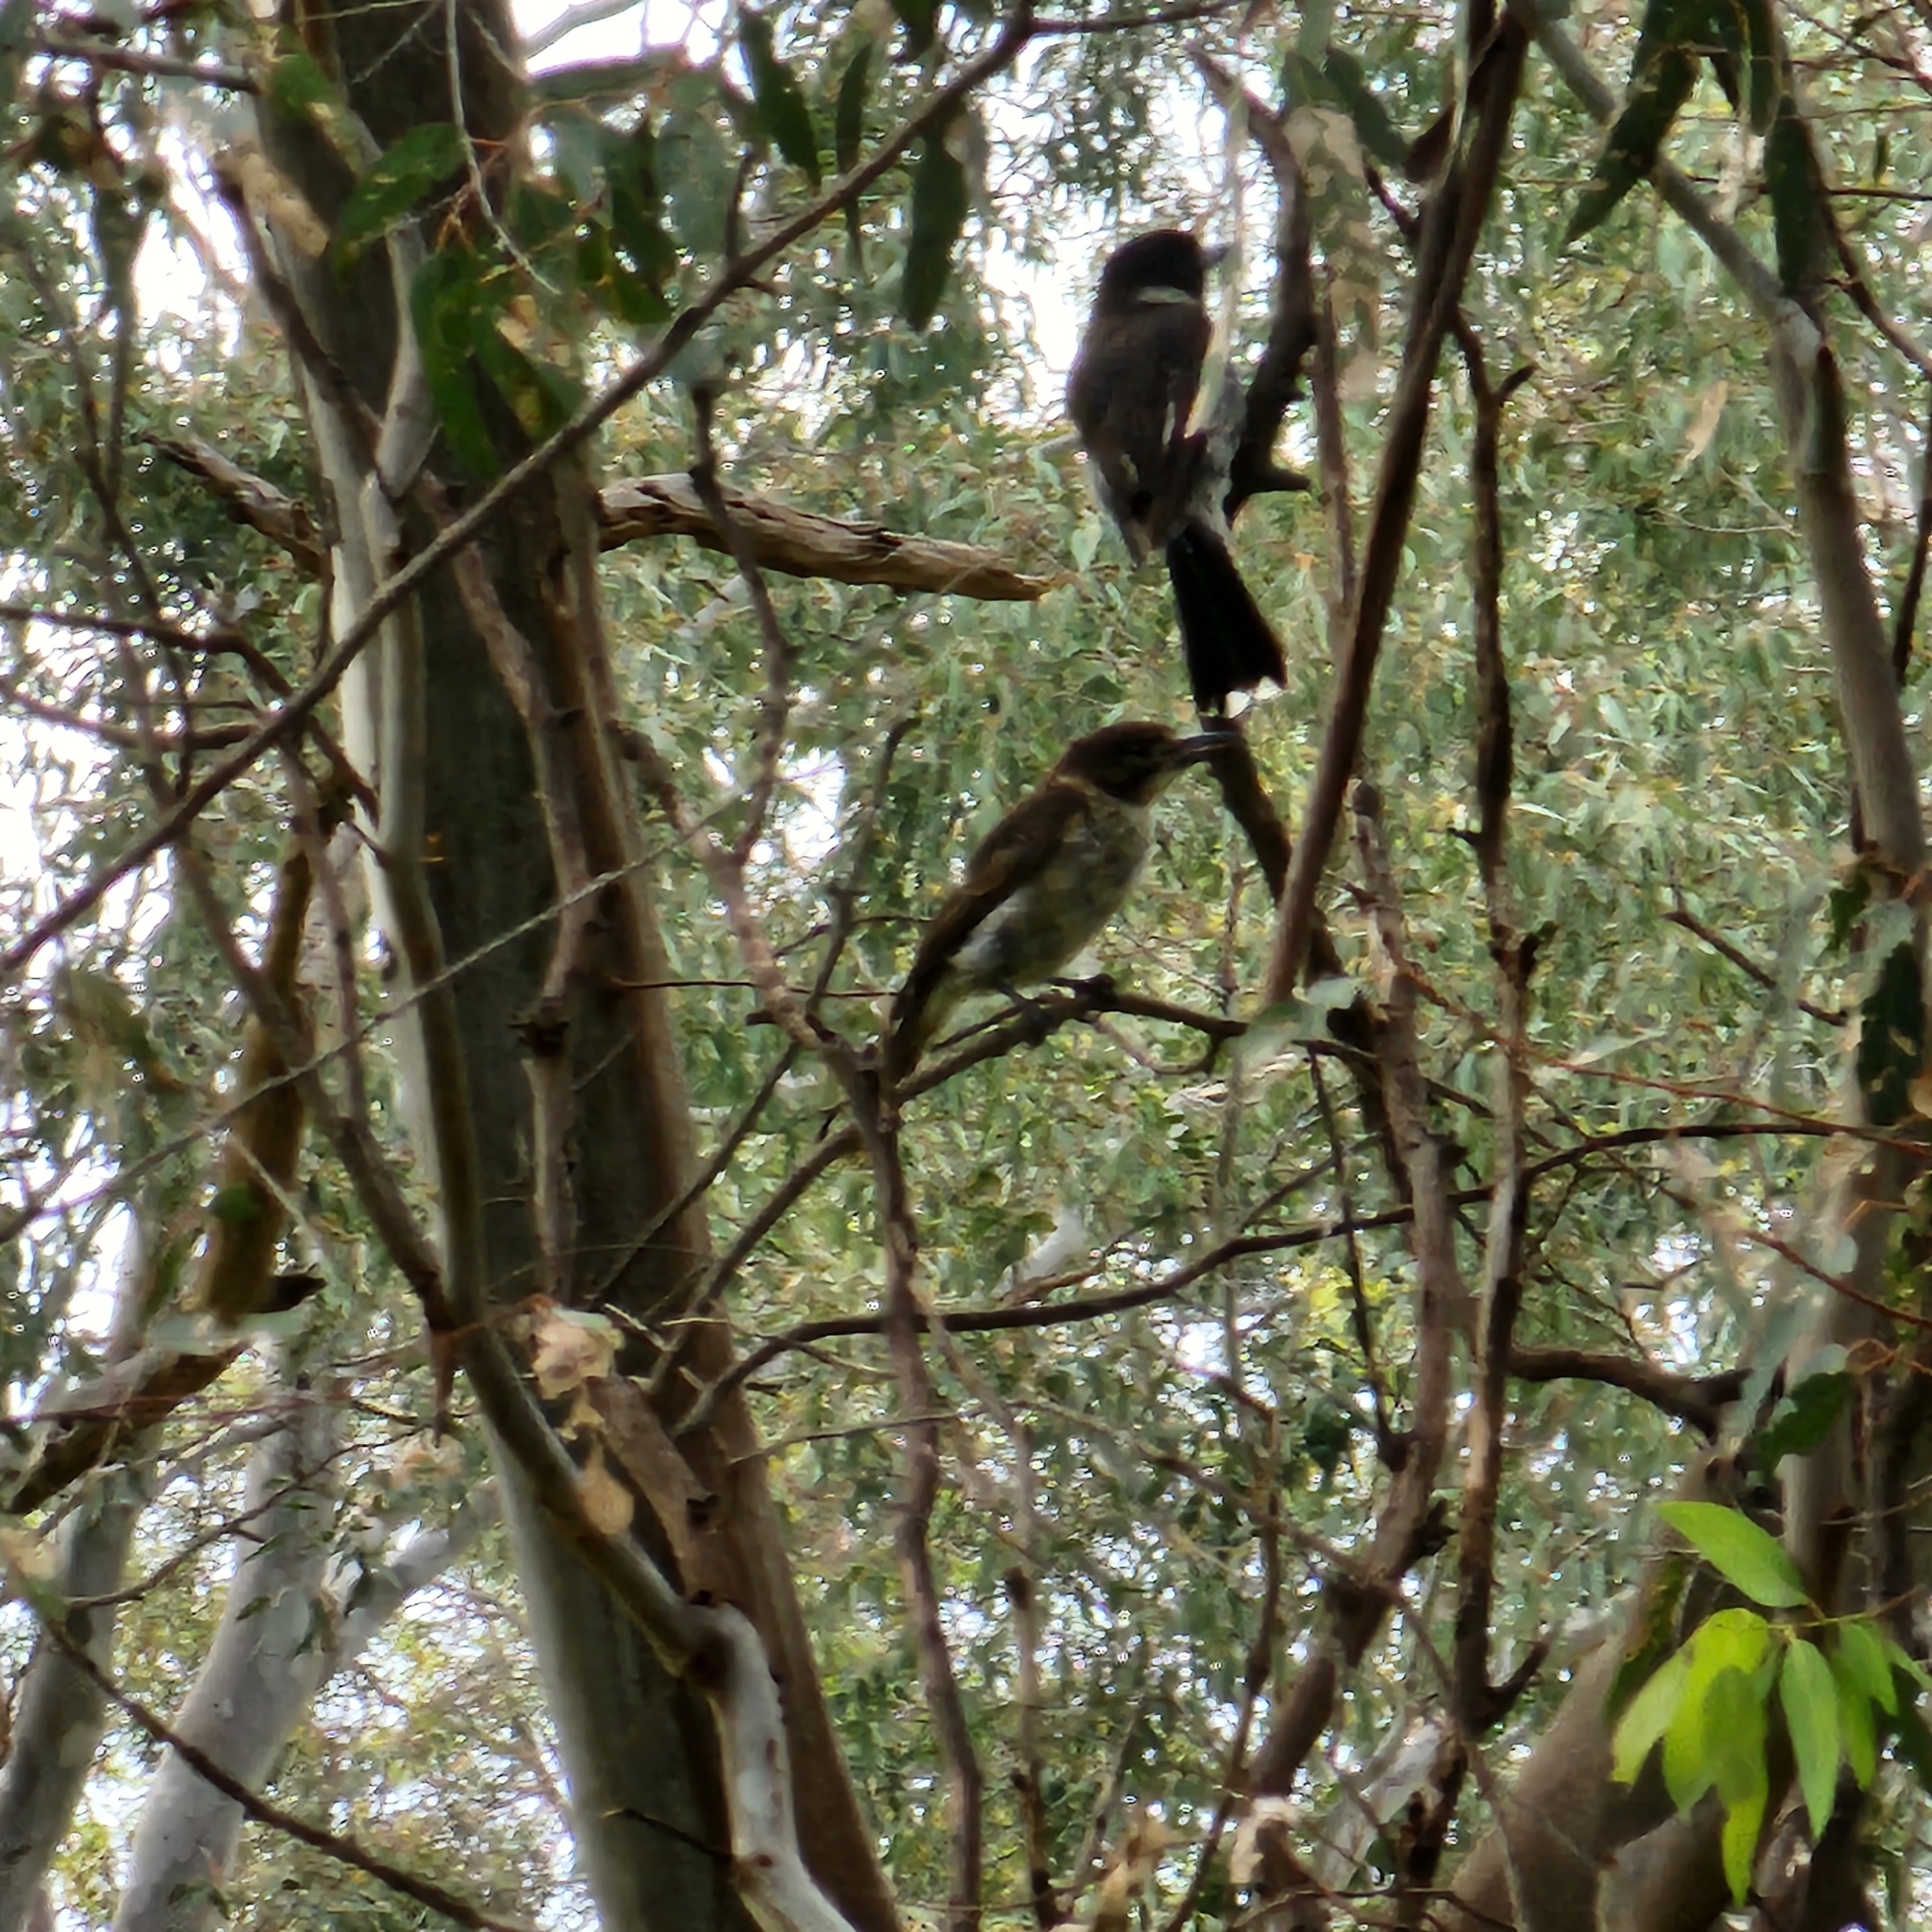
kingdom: Animalia
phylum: Chordata
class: Aves
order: Passeriformes
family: Cracticidae
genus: Cracticus
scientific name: Cracticus torquatus
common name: Grey butcherbird
